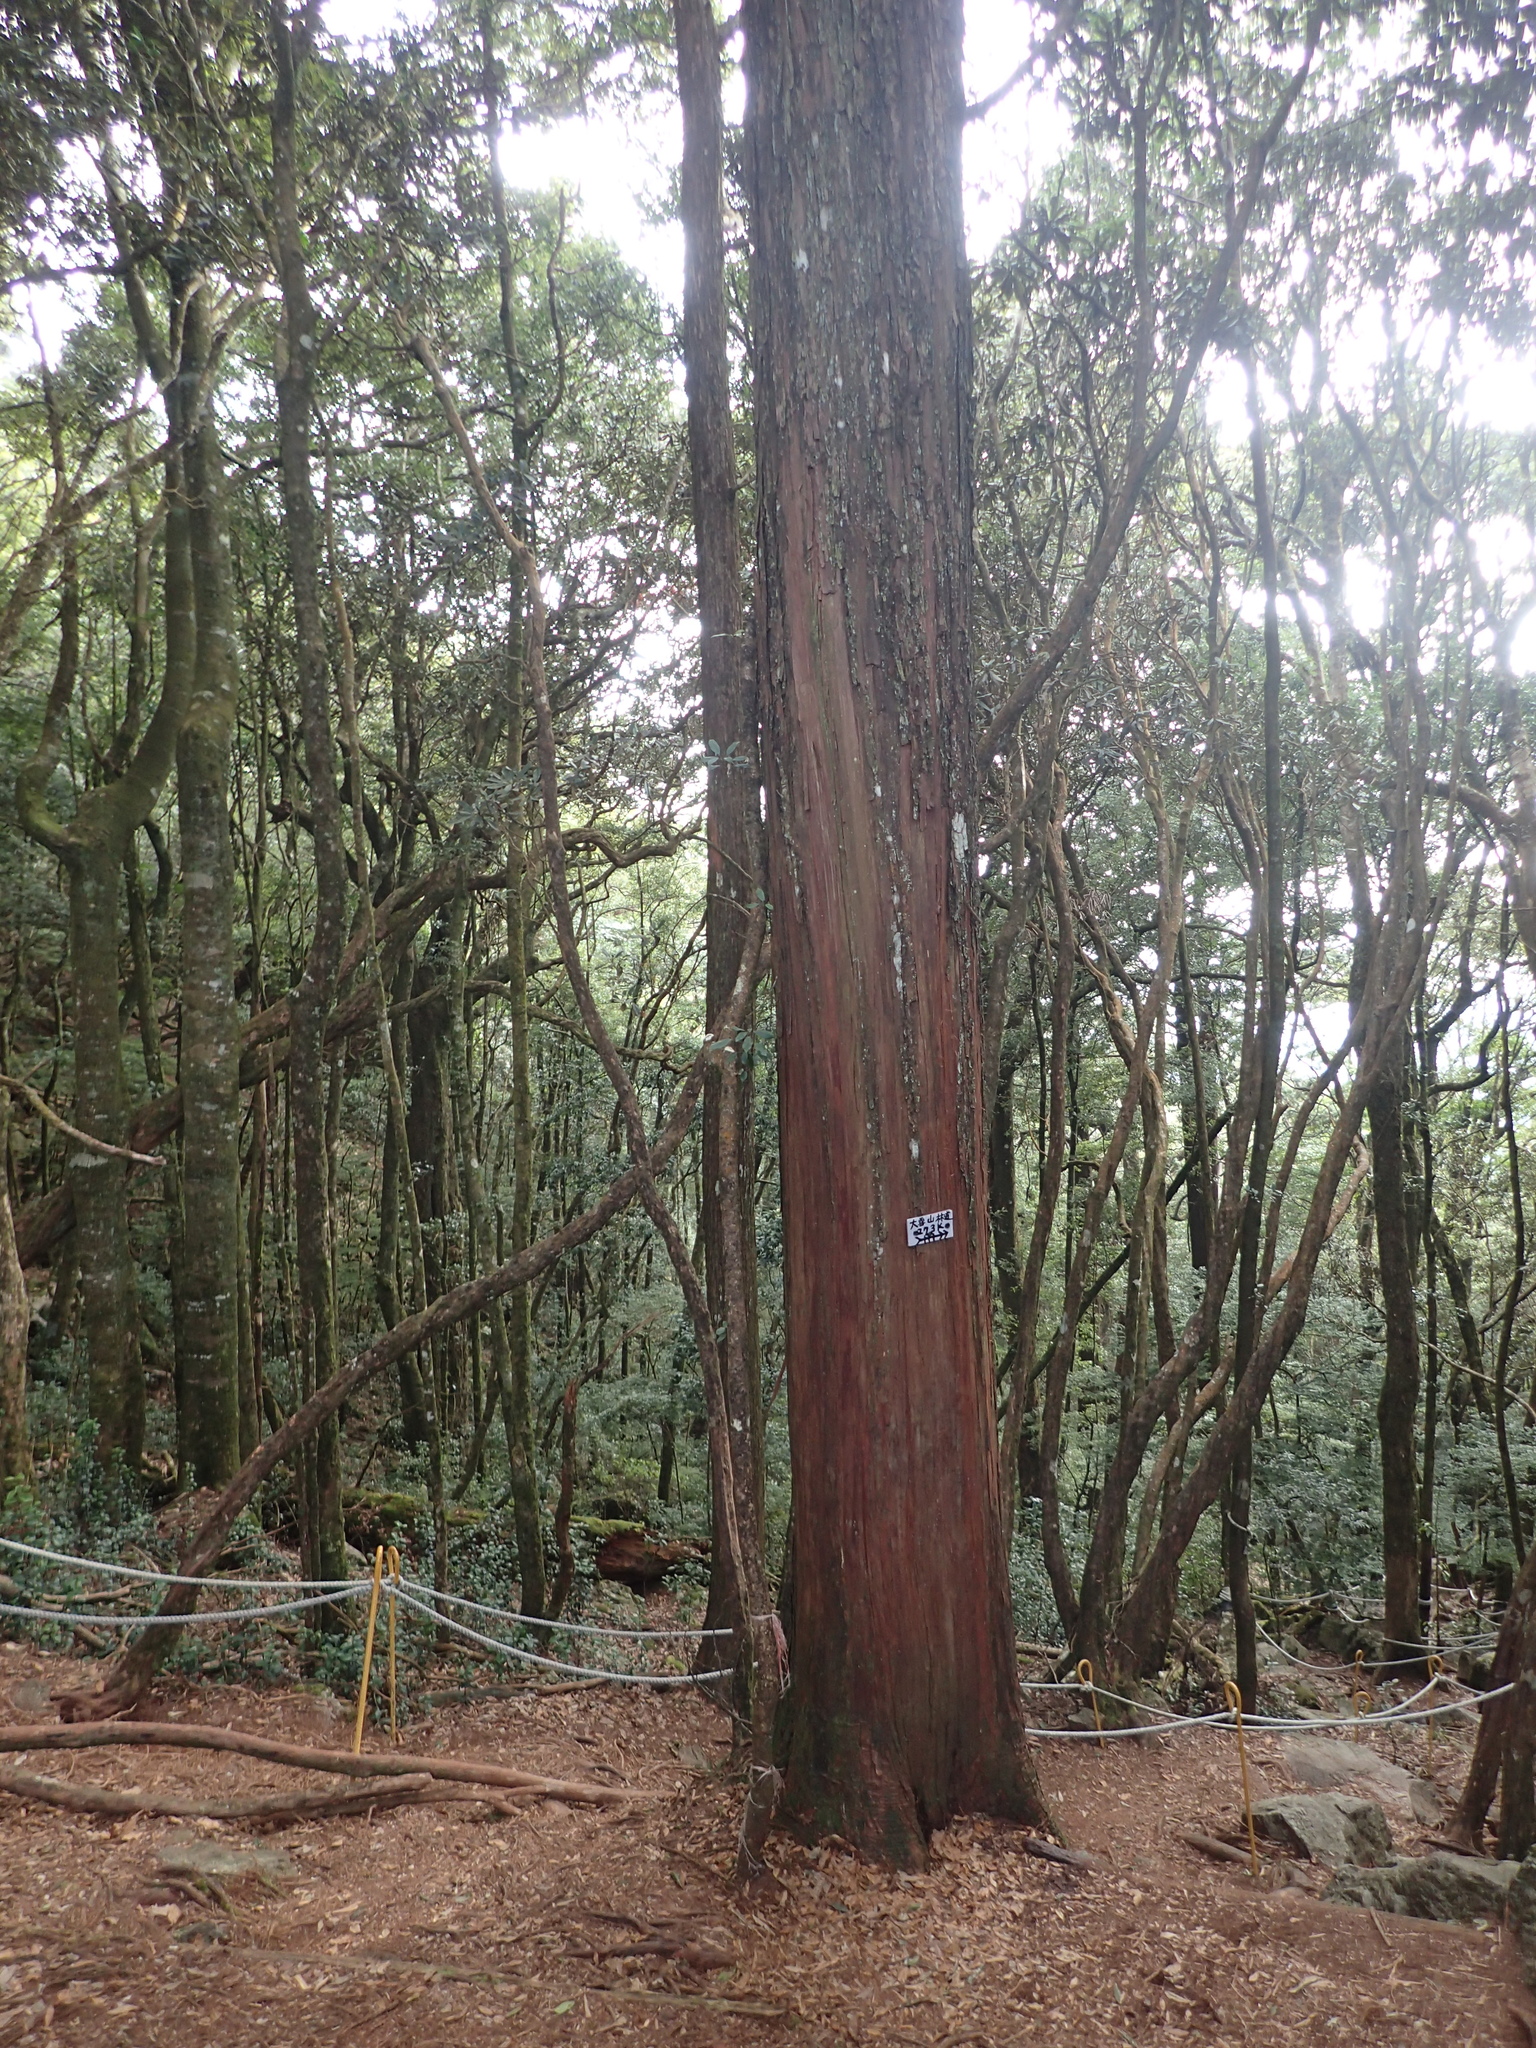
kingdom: Plantae
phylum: Tracheophyta
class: Pinopsida
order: Pinales
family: Cupressaceae
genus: Chamaecyparis
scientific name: Chamaecyparis obtusa
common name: Hinoki false cypress
